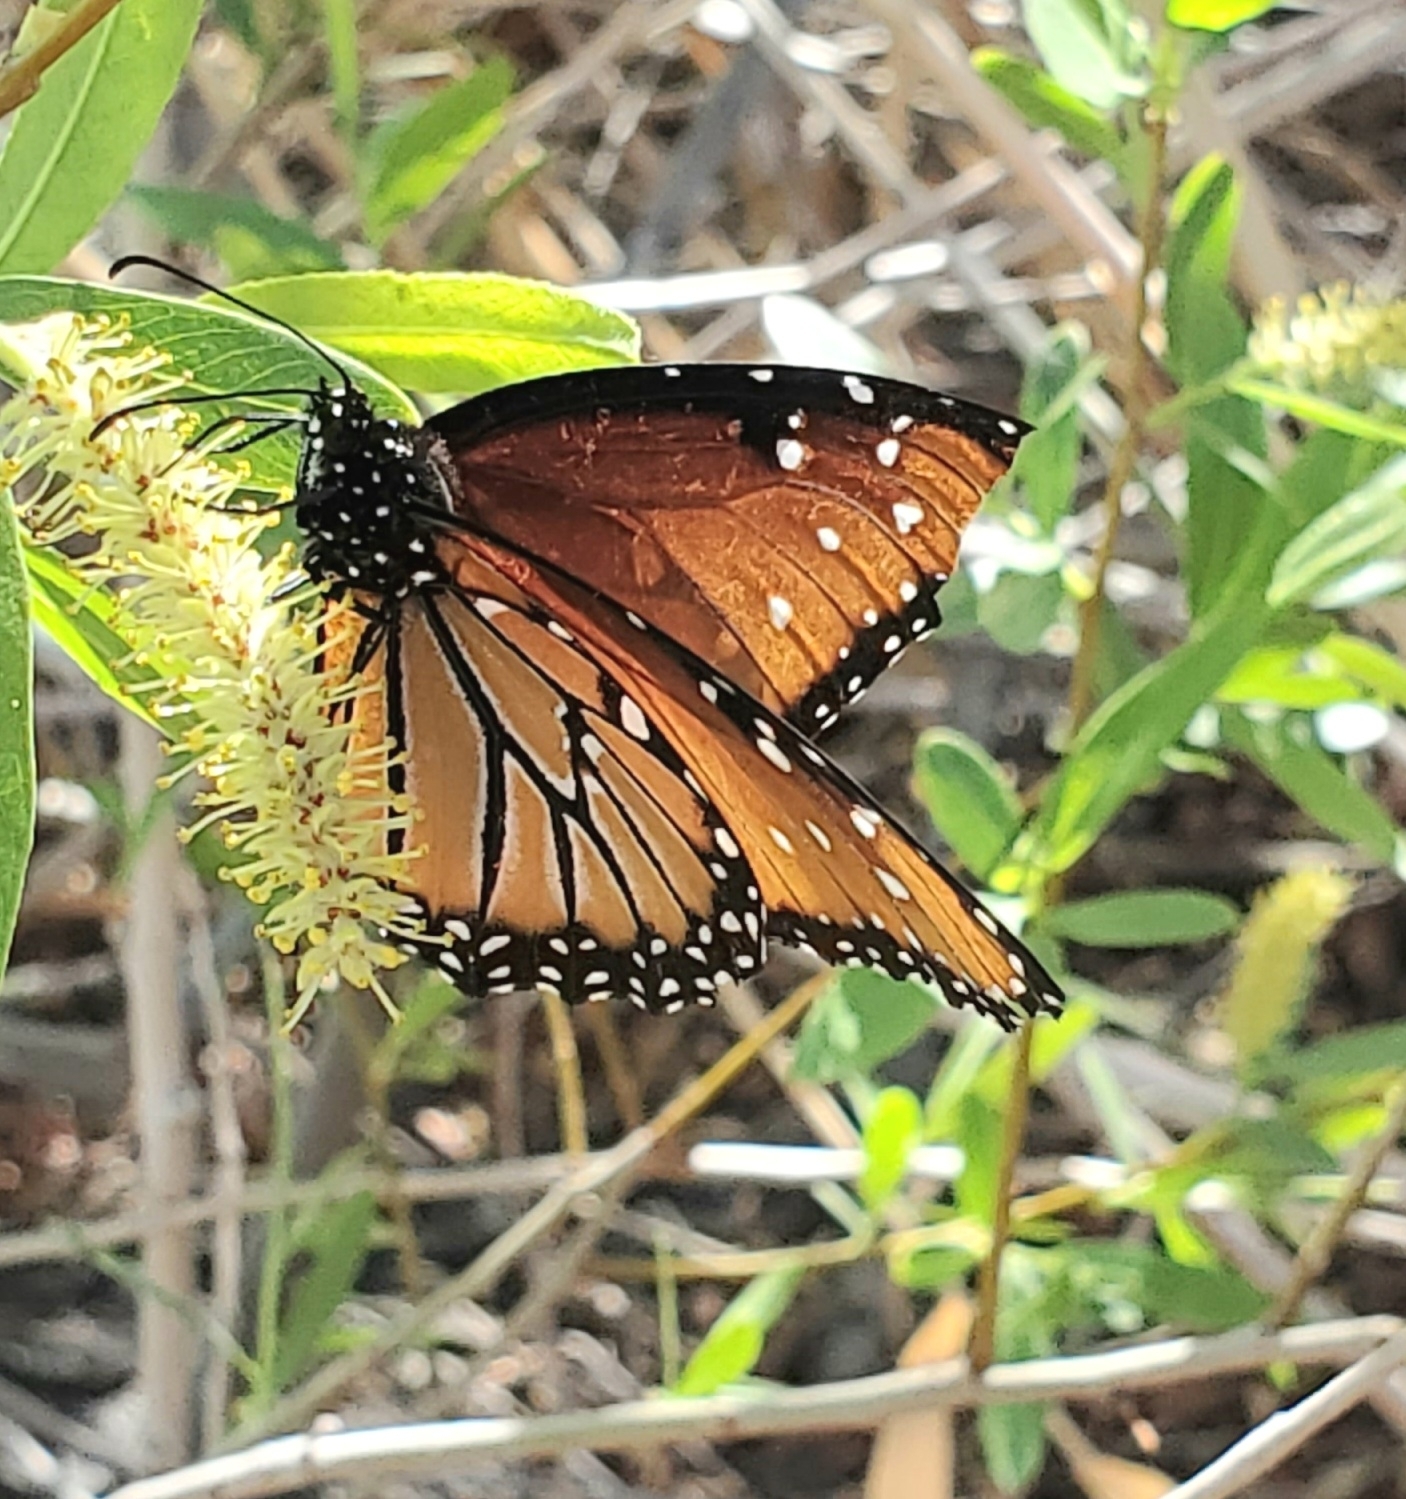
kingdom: Animalia
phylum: Arthropoda
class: Insecta
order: Lepidoptera
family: Nymphalidae
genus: Danaus
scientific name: Danaus gilippus
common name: Queen
